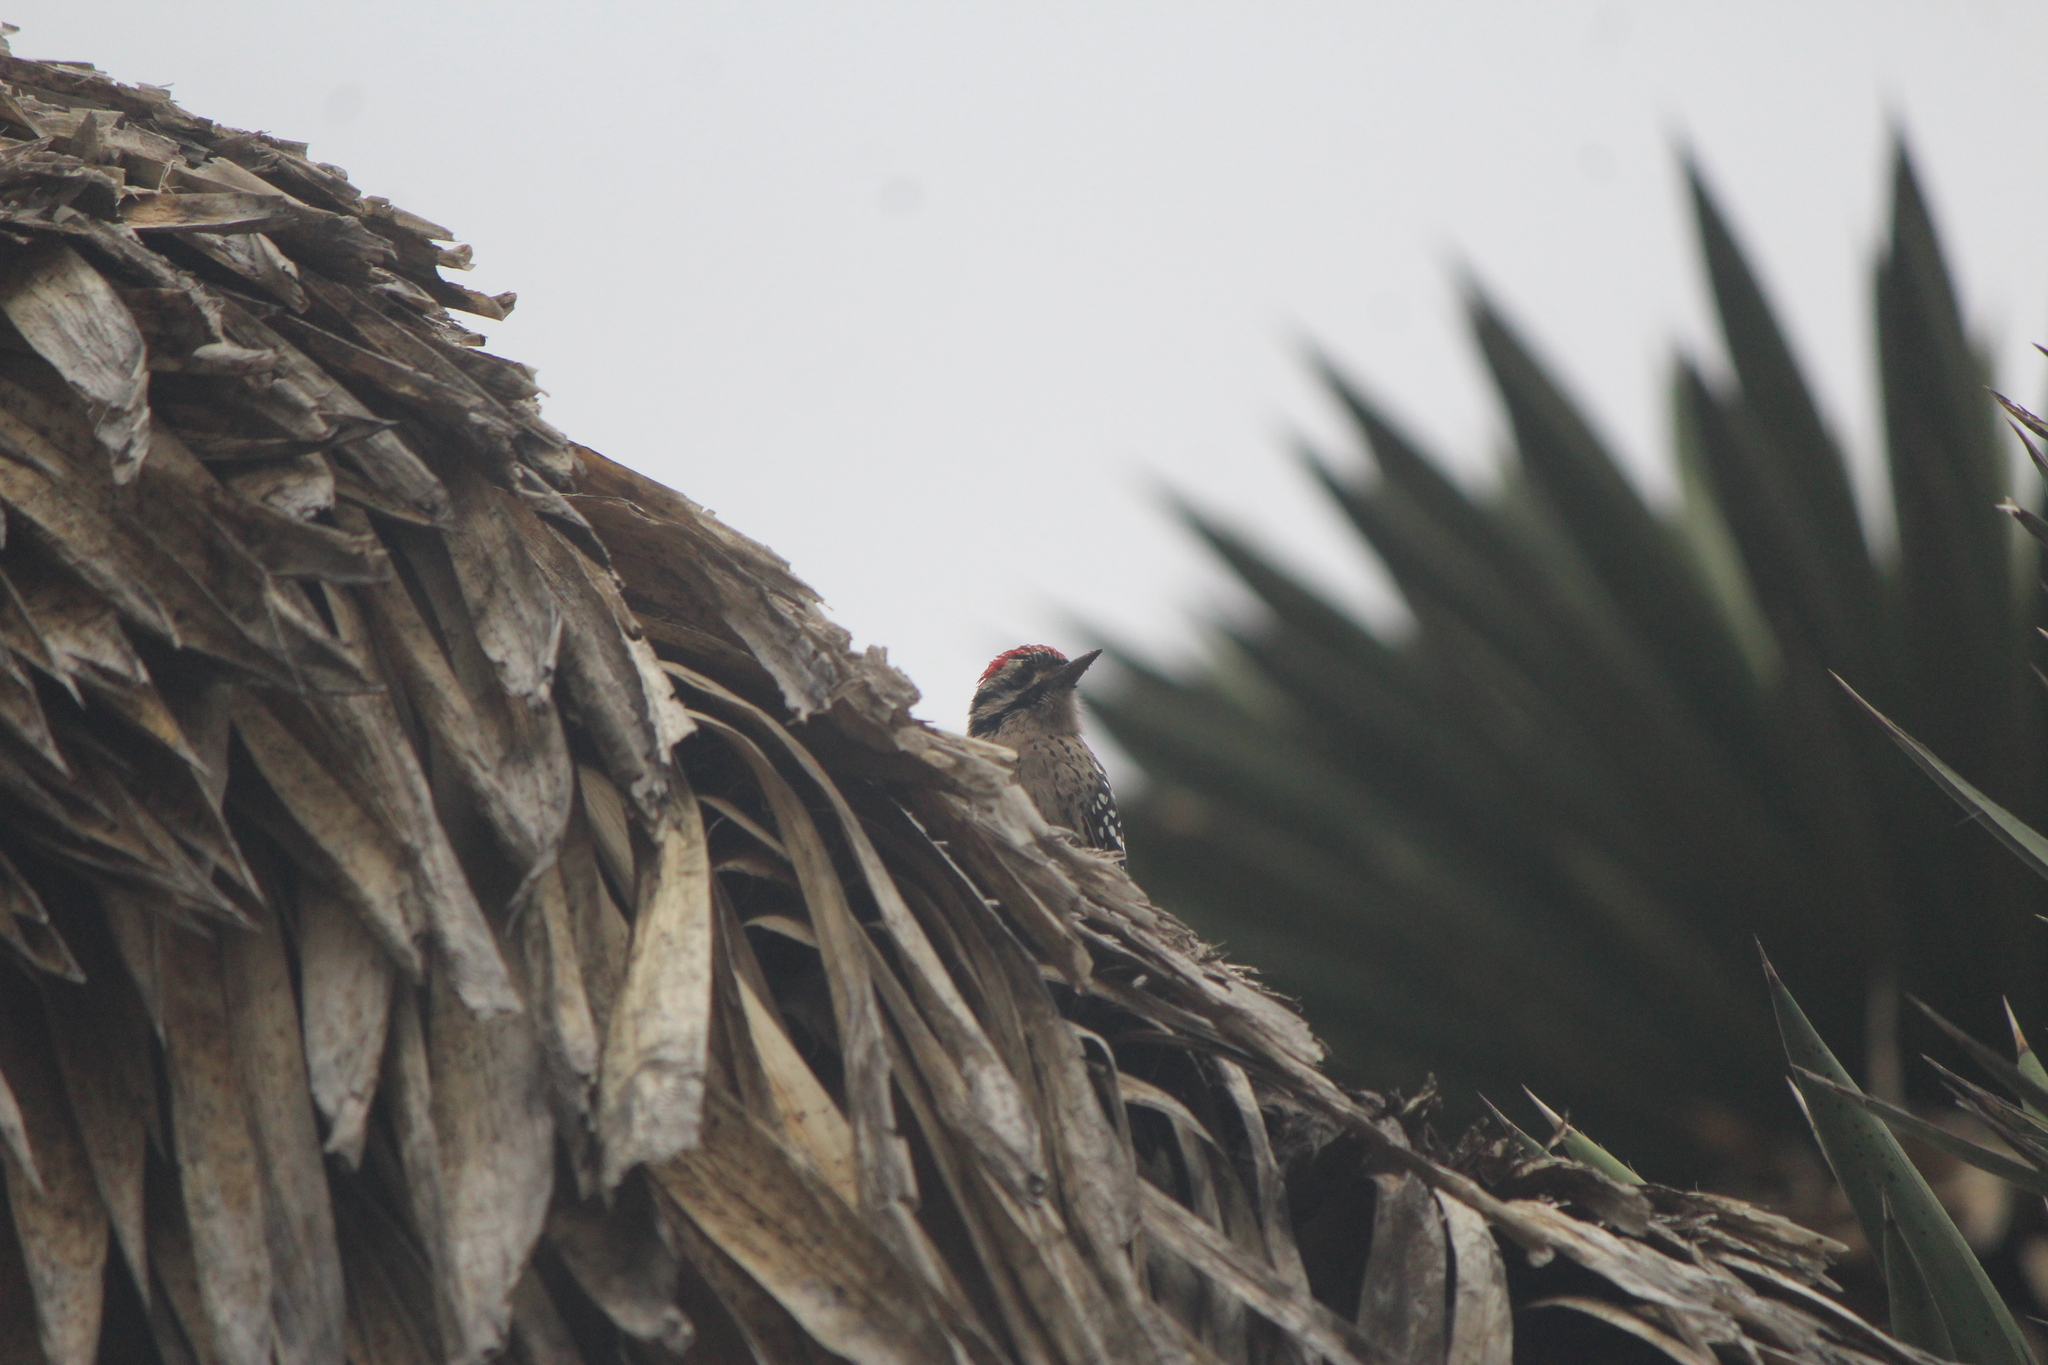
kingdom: Animalia
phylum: Chordata
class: Aves
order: Piciformes
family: Picidae
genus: Dryobates
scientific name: Dryobates scalaris
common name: Ladder-backed woodpecker
